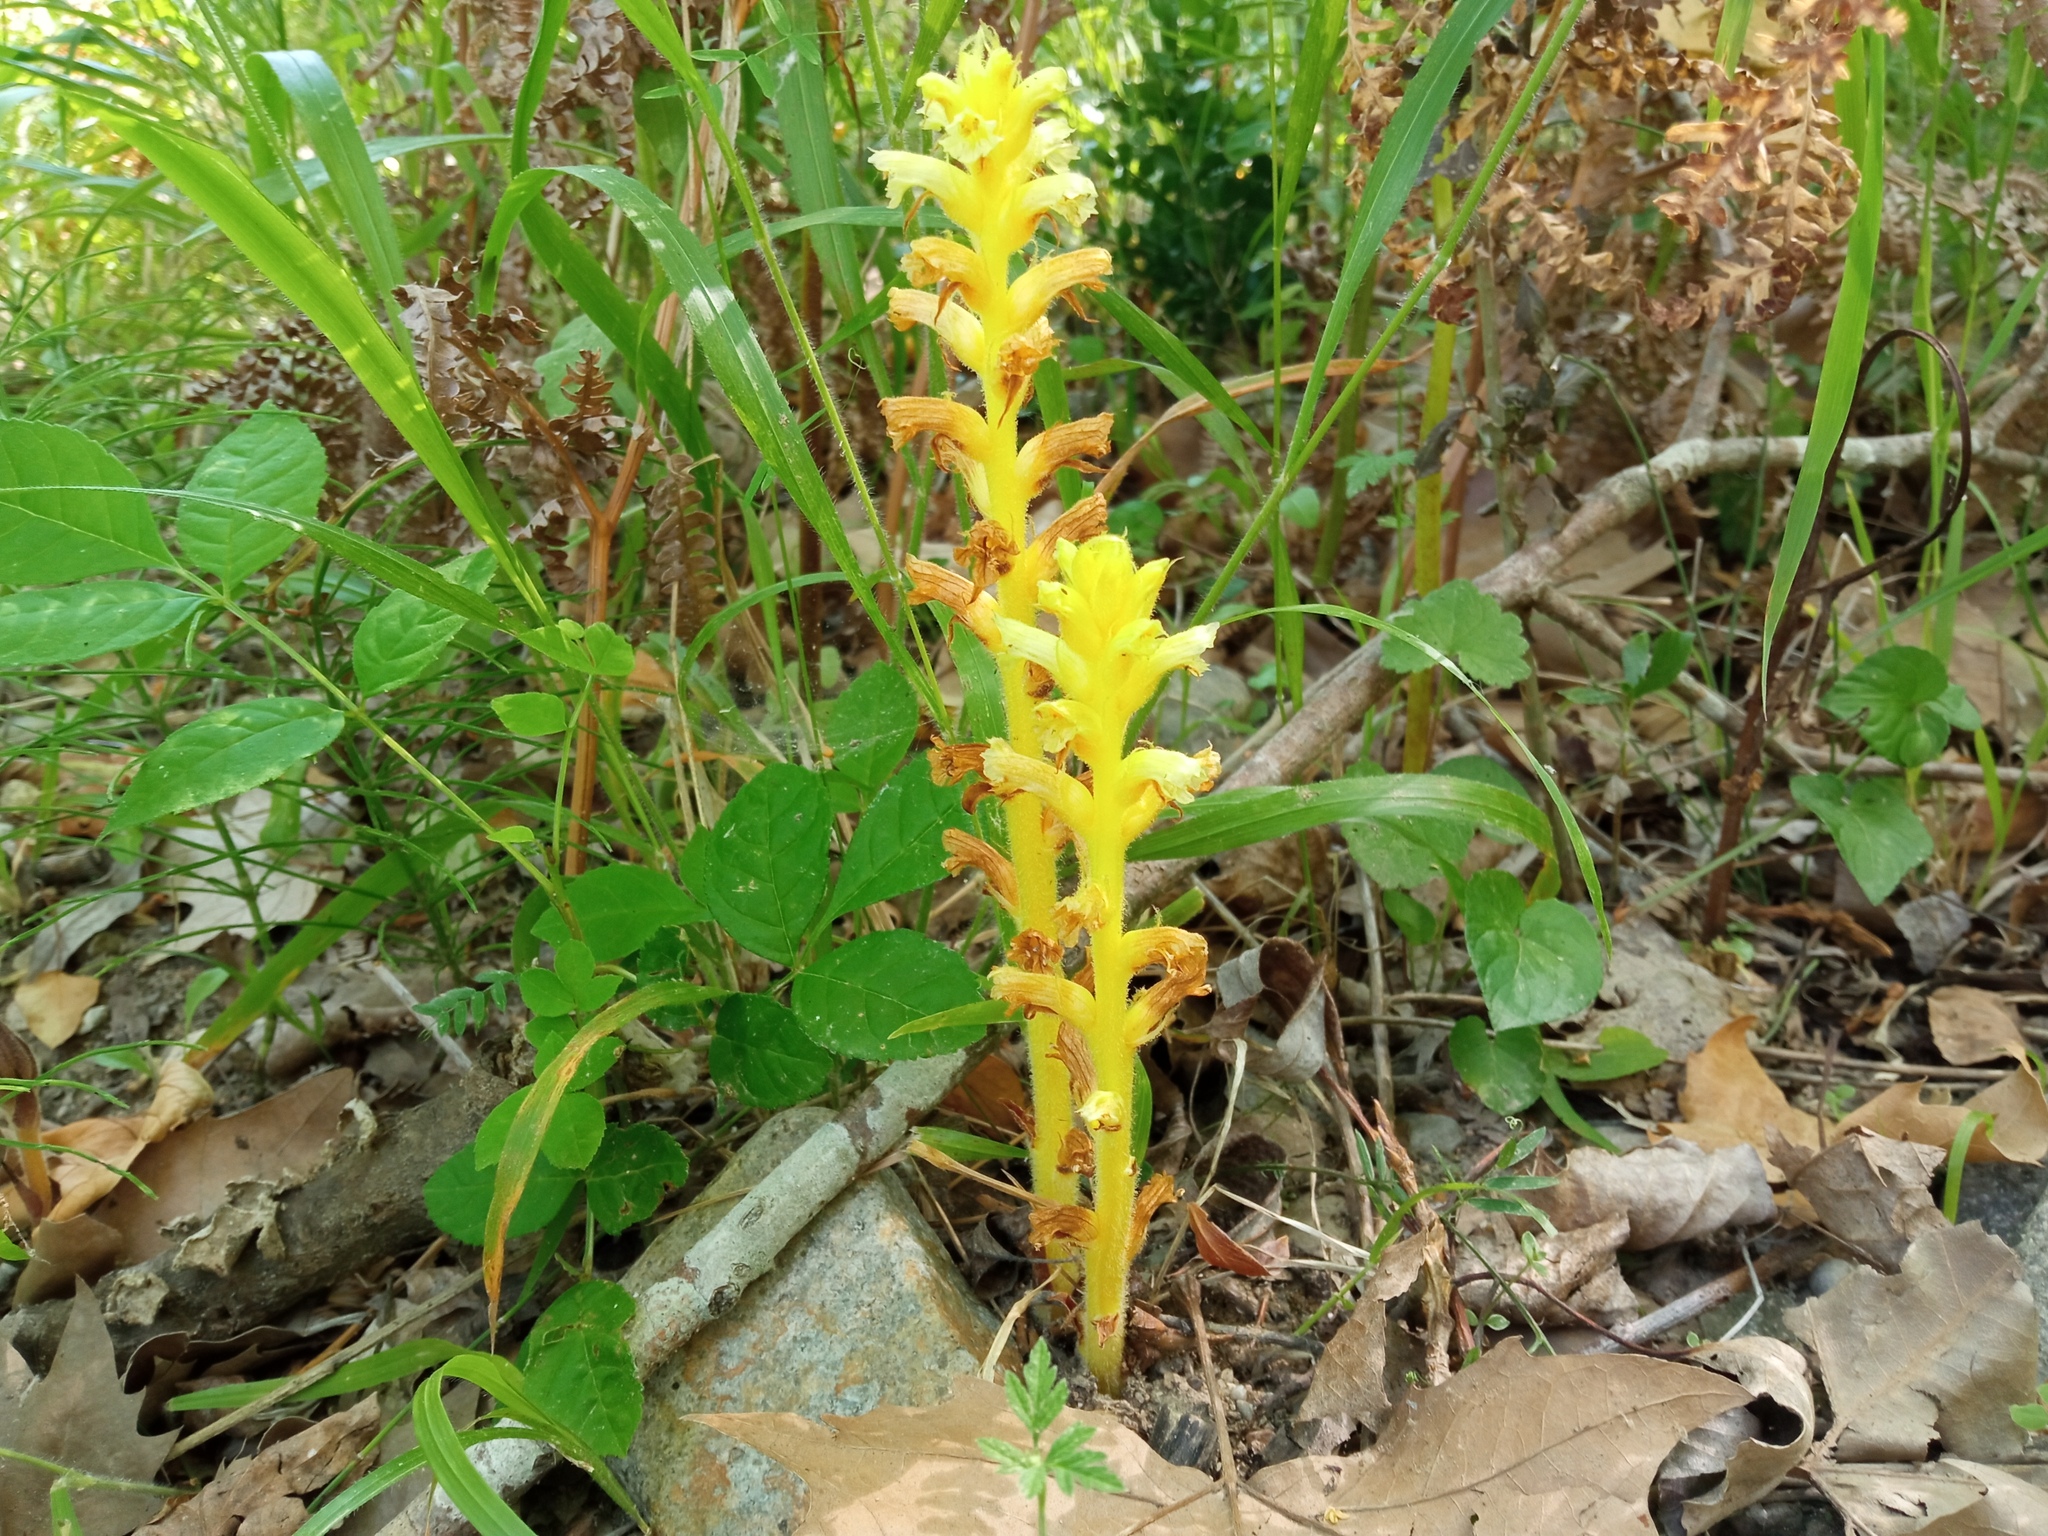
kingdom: Plantae
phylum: Tracheophyta
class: Magnoliopsida
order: Lamiales
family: Orobanchaceae
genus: Orobanche
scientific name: Orobanche hederae
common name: Ivy broomrape
